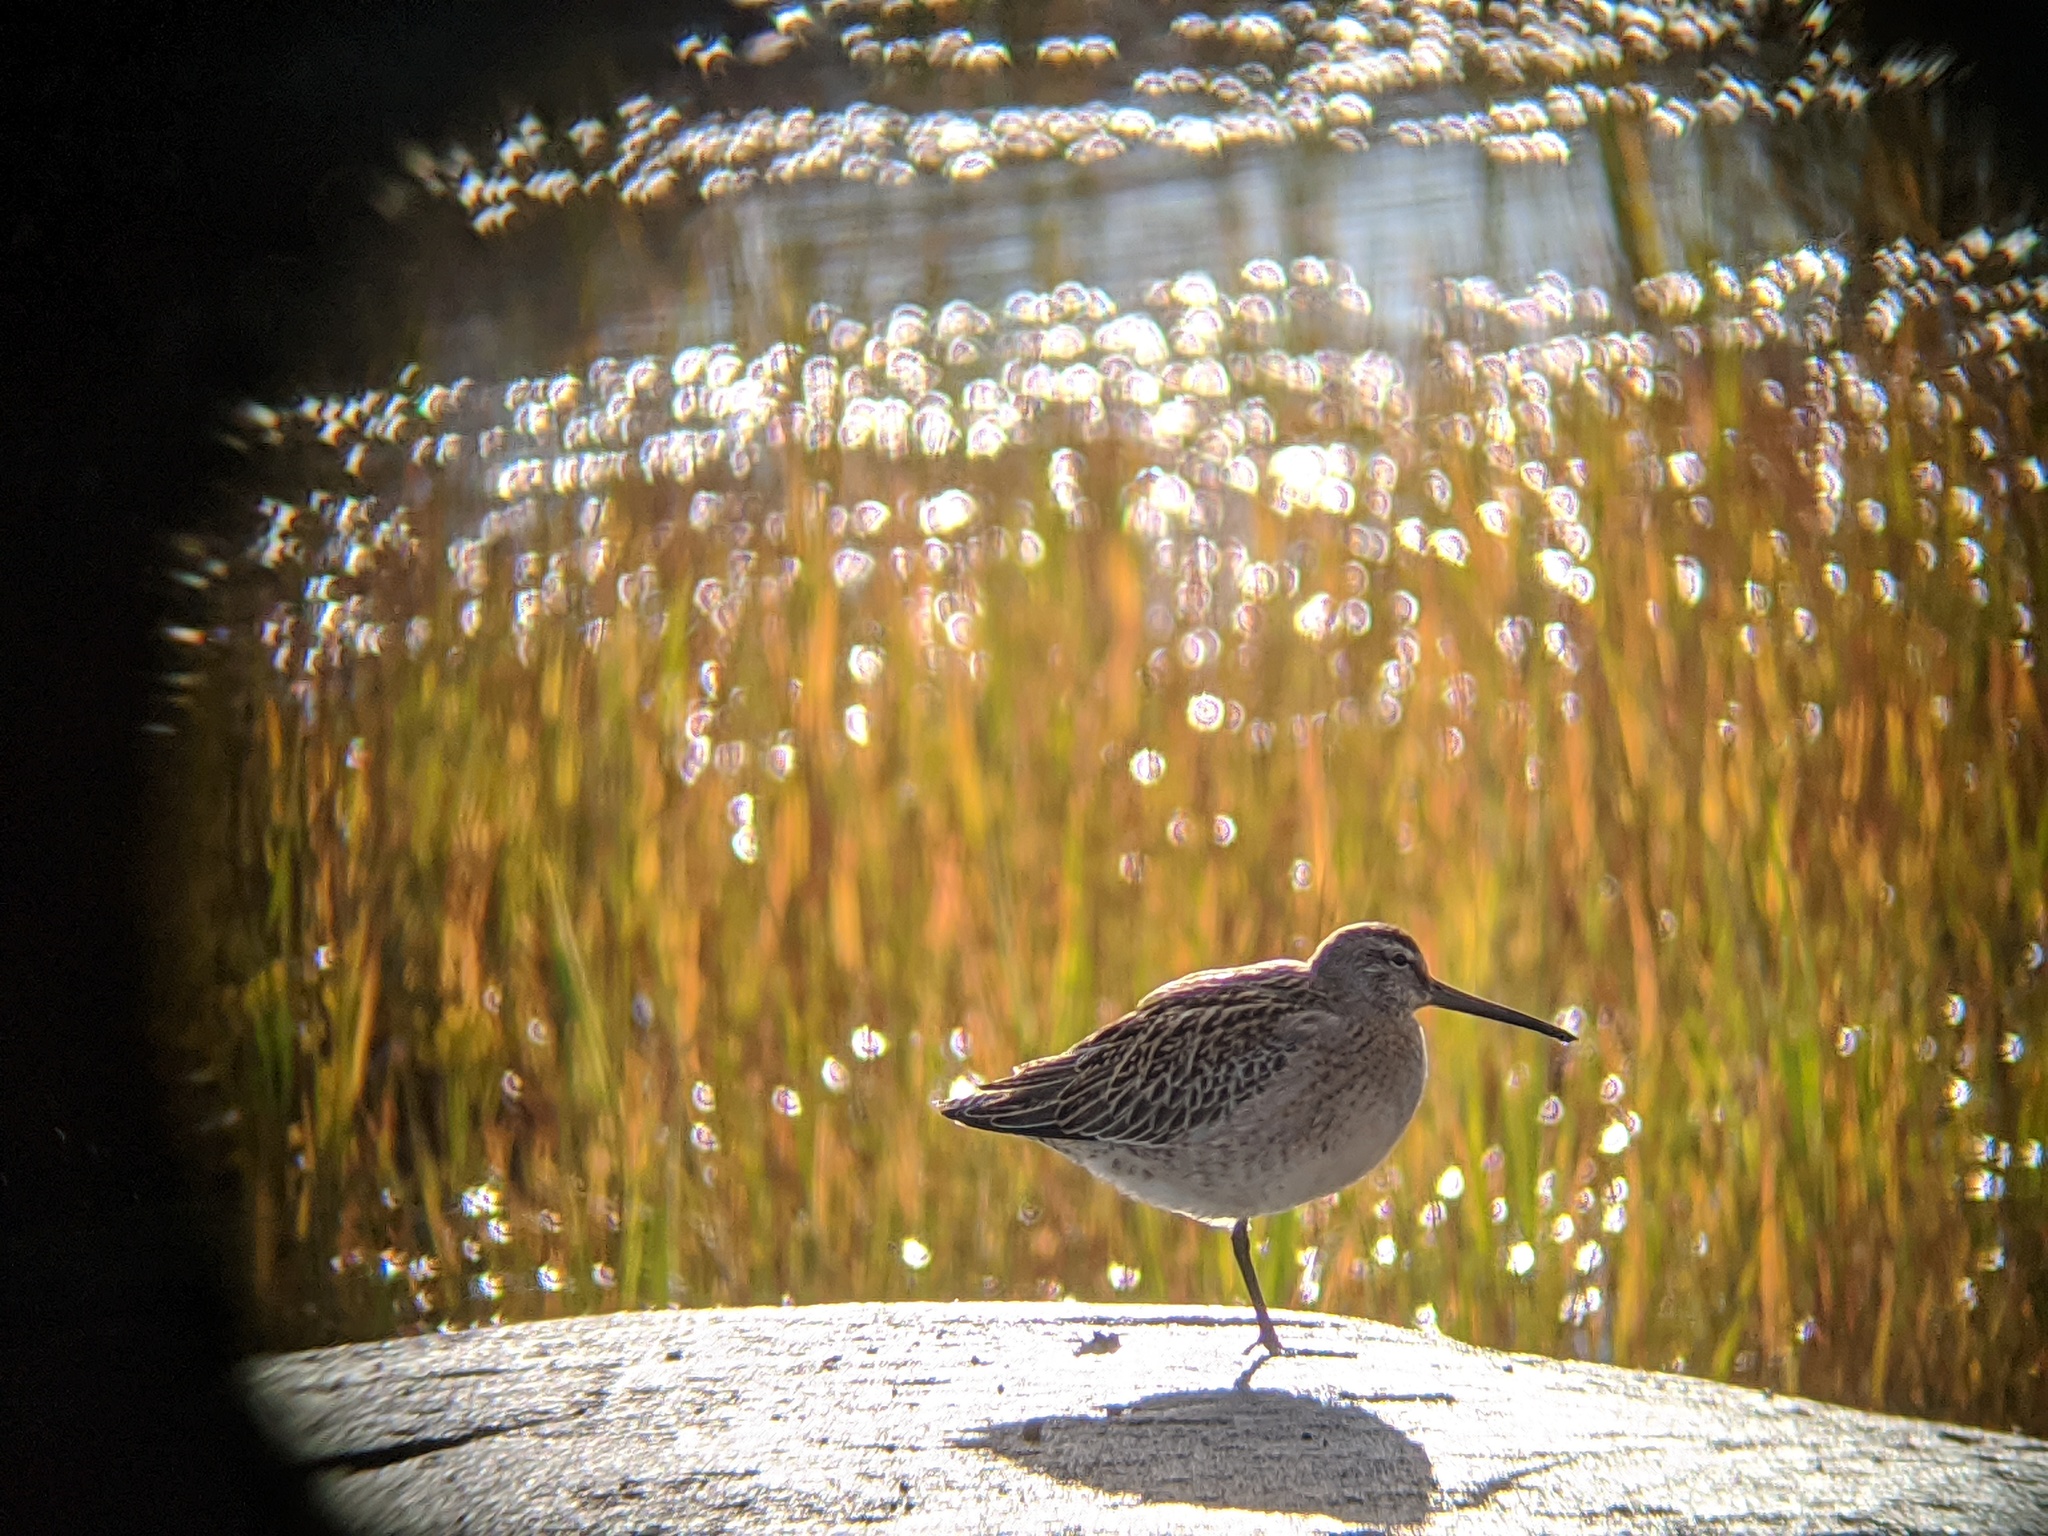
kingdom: Animalia
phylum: Chordata
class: Aves
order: Charadriiformes
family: Scolopacidae
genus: Limnodromus
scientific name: Limnodromus griseus
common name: Short-billed dowitcher
